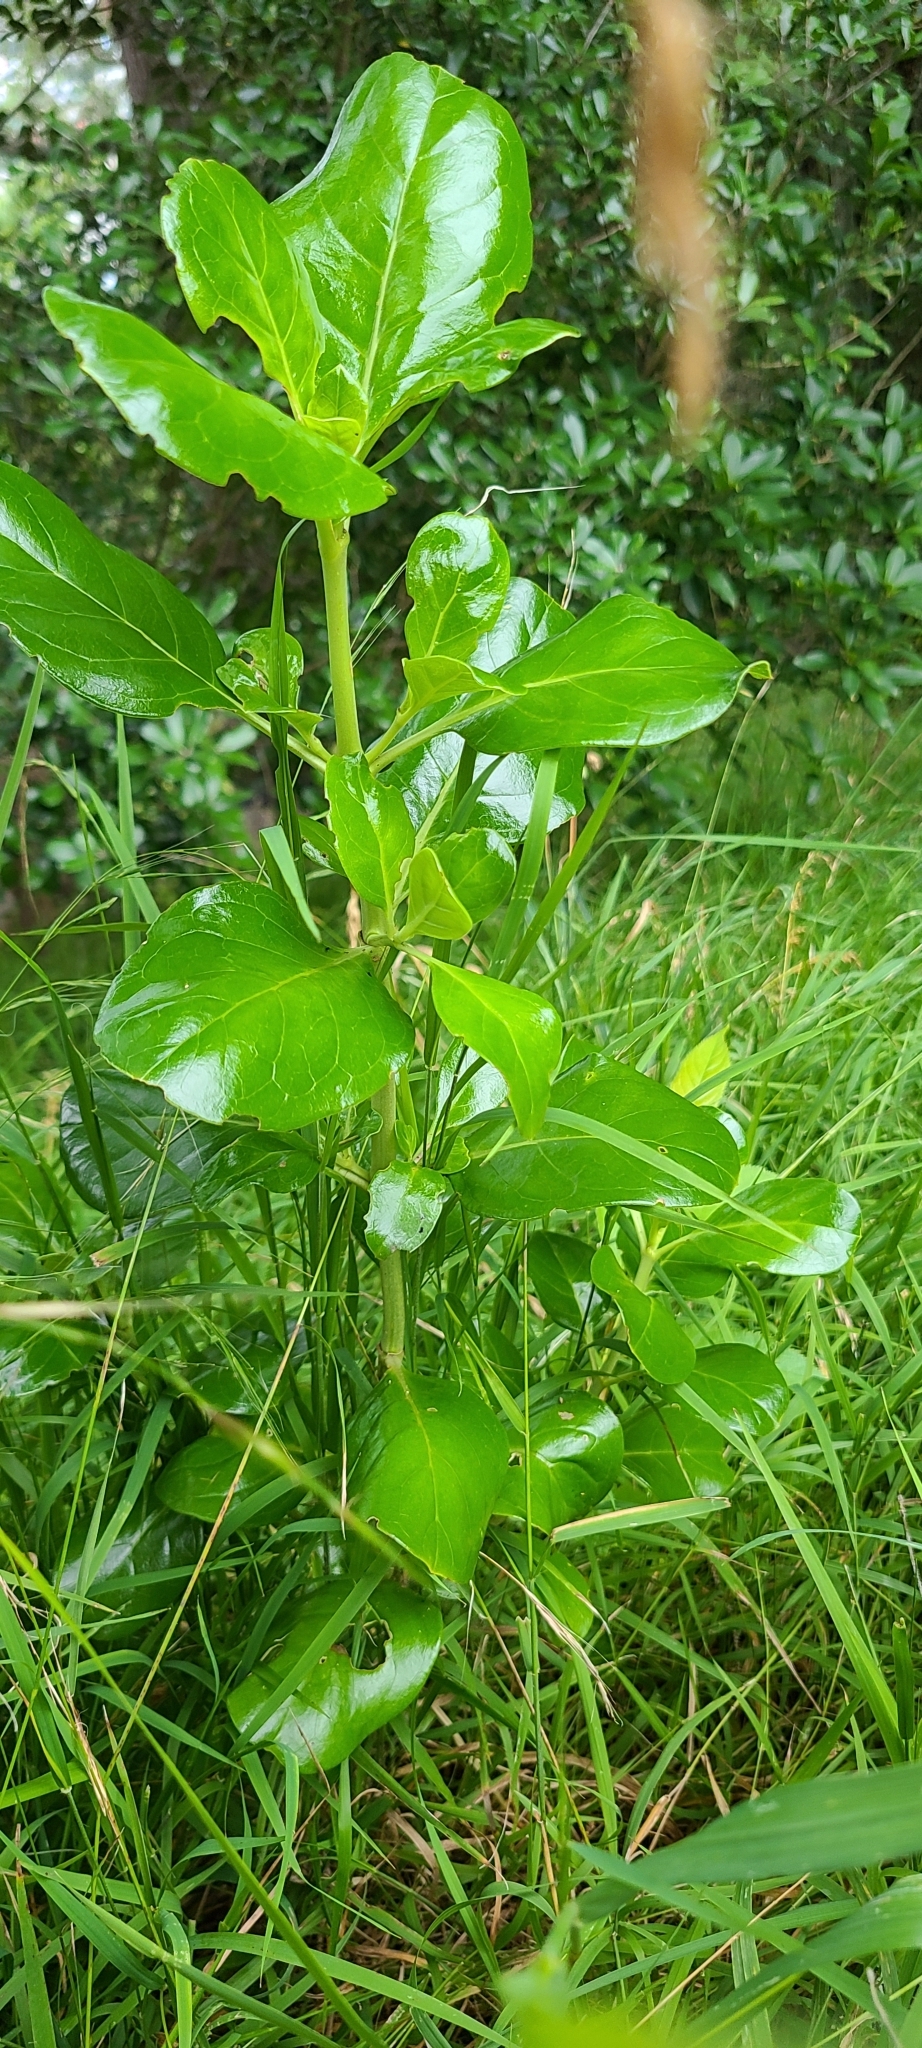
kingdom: Plantae
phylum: Tracheophyta
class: Magnoliopsida
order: Gentianales
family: Rubiaceae
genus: Coprosma
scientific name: Coprosma repens
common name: Tree bedstraw
